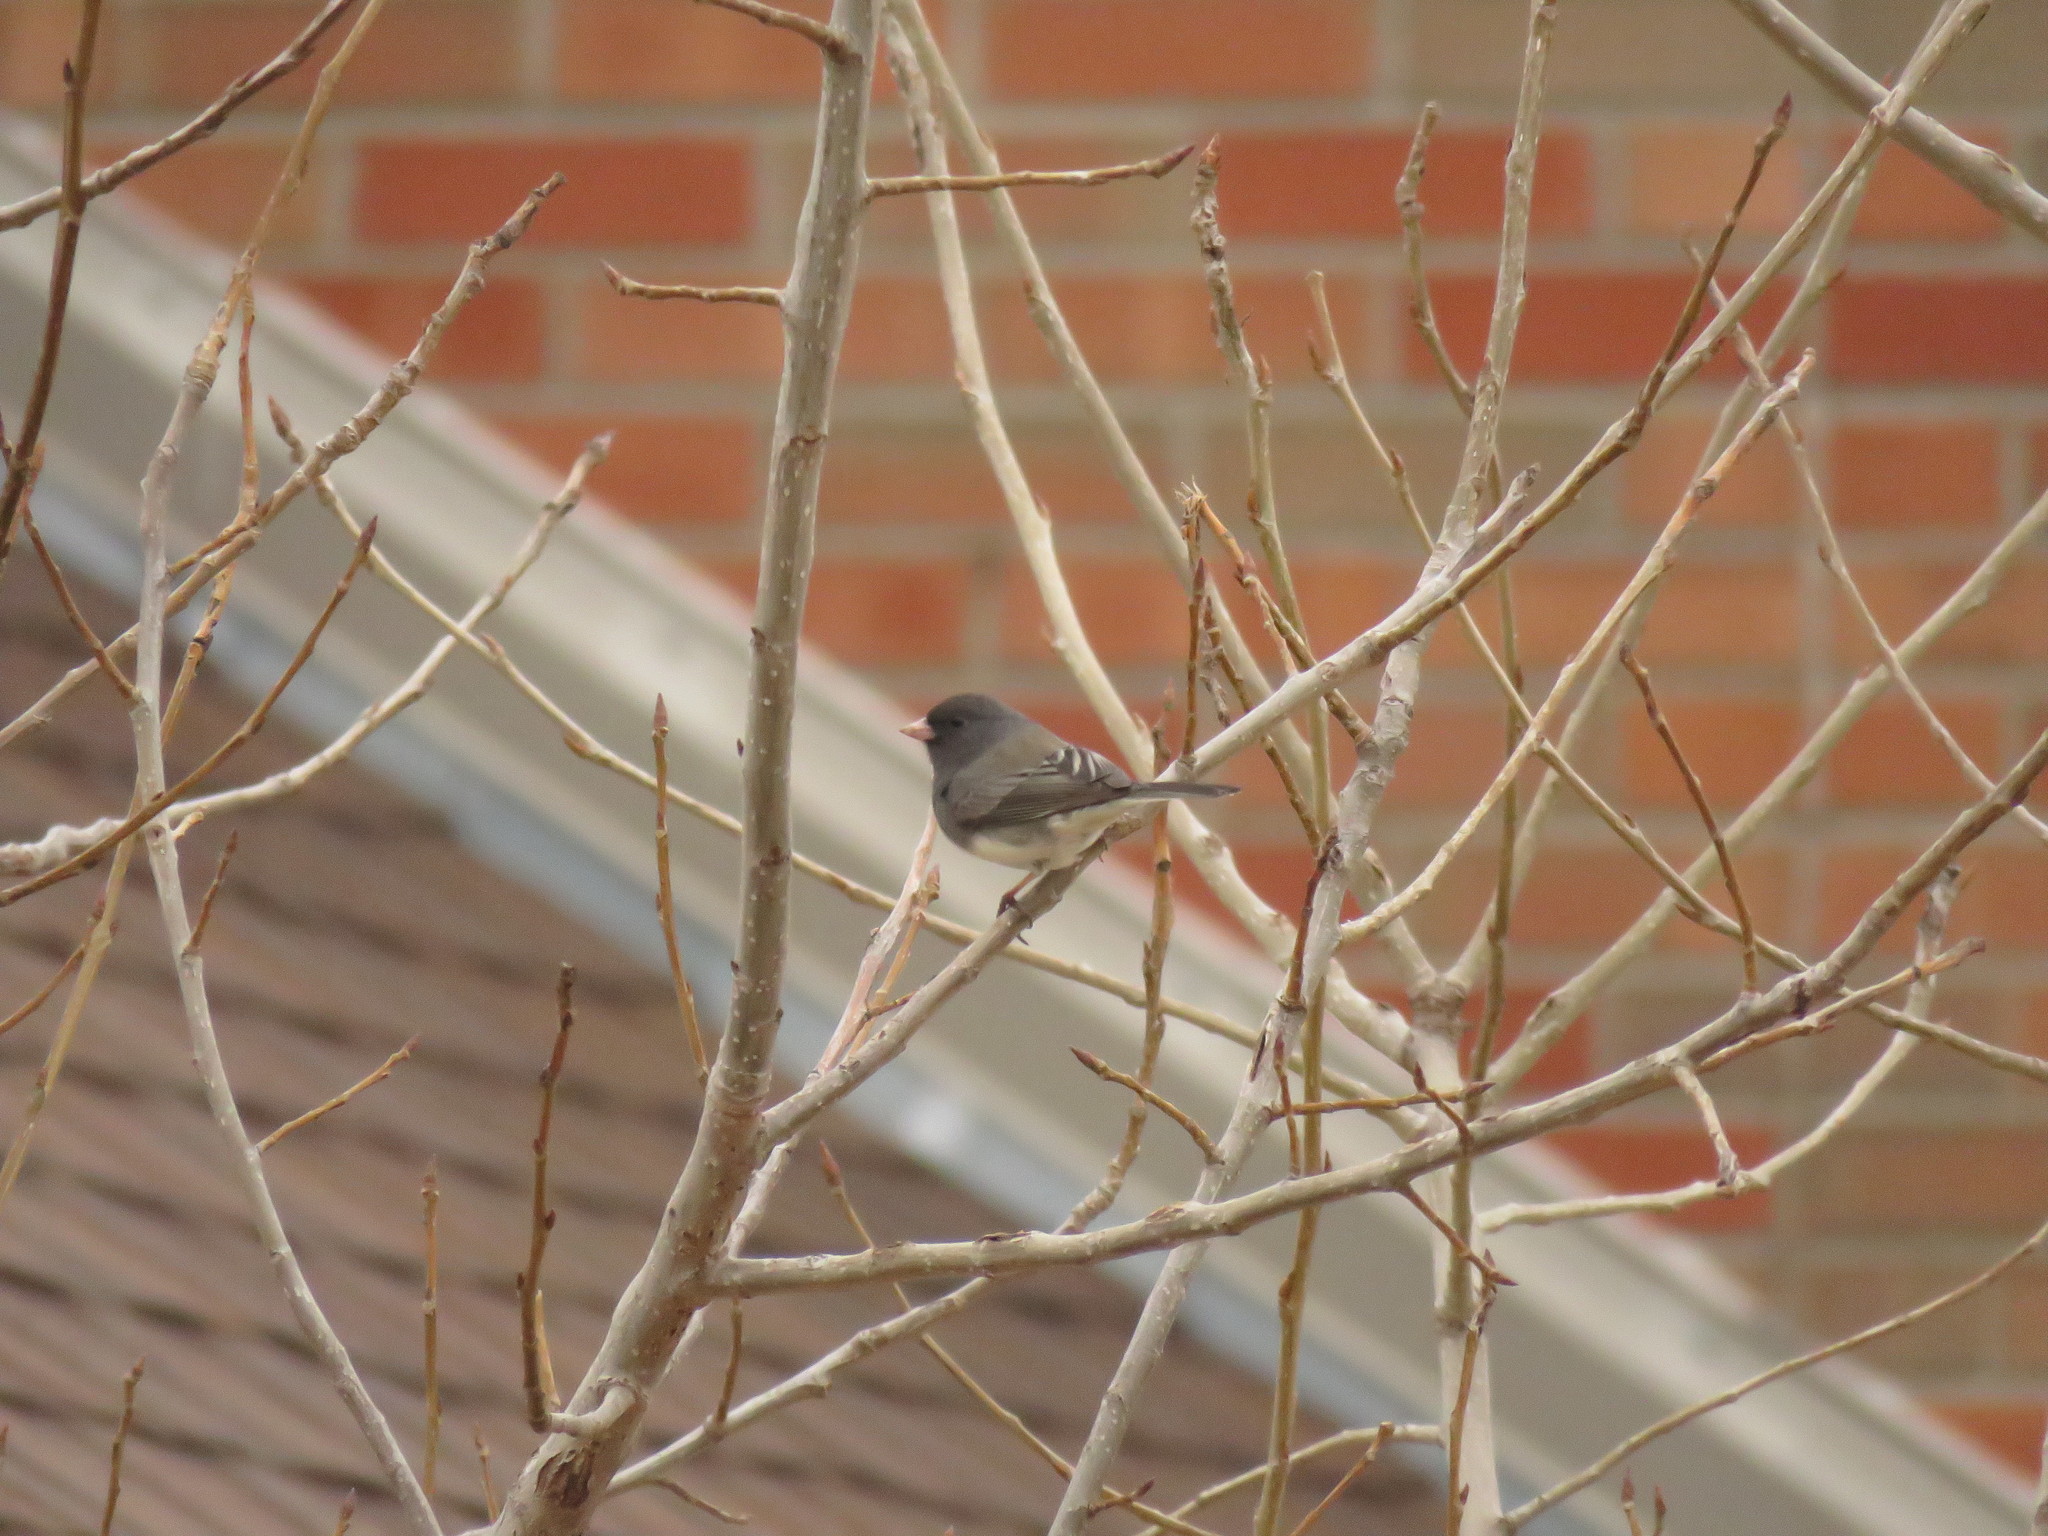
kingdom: Animalia
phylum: Chordata
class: Aves
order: Passeriformes
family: Passerellidae
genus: Junco
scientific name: Junco hyemalis
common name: Dark-eyed junco
